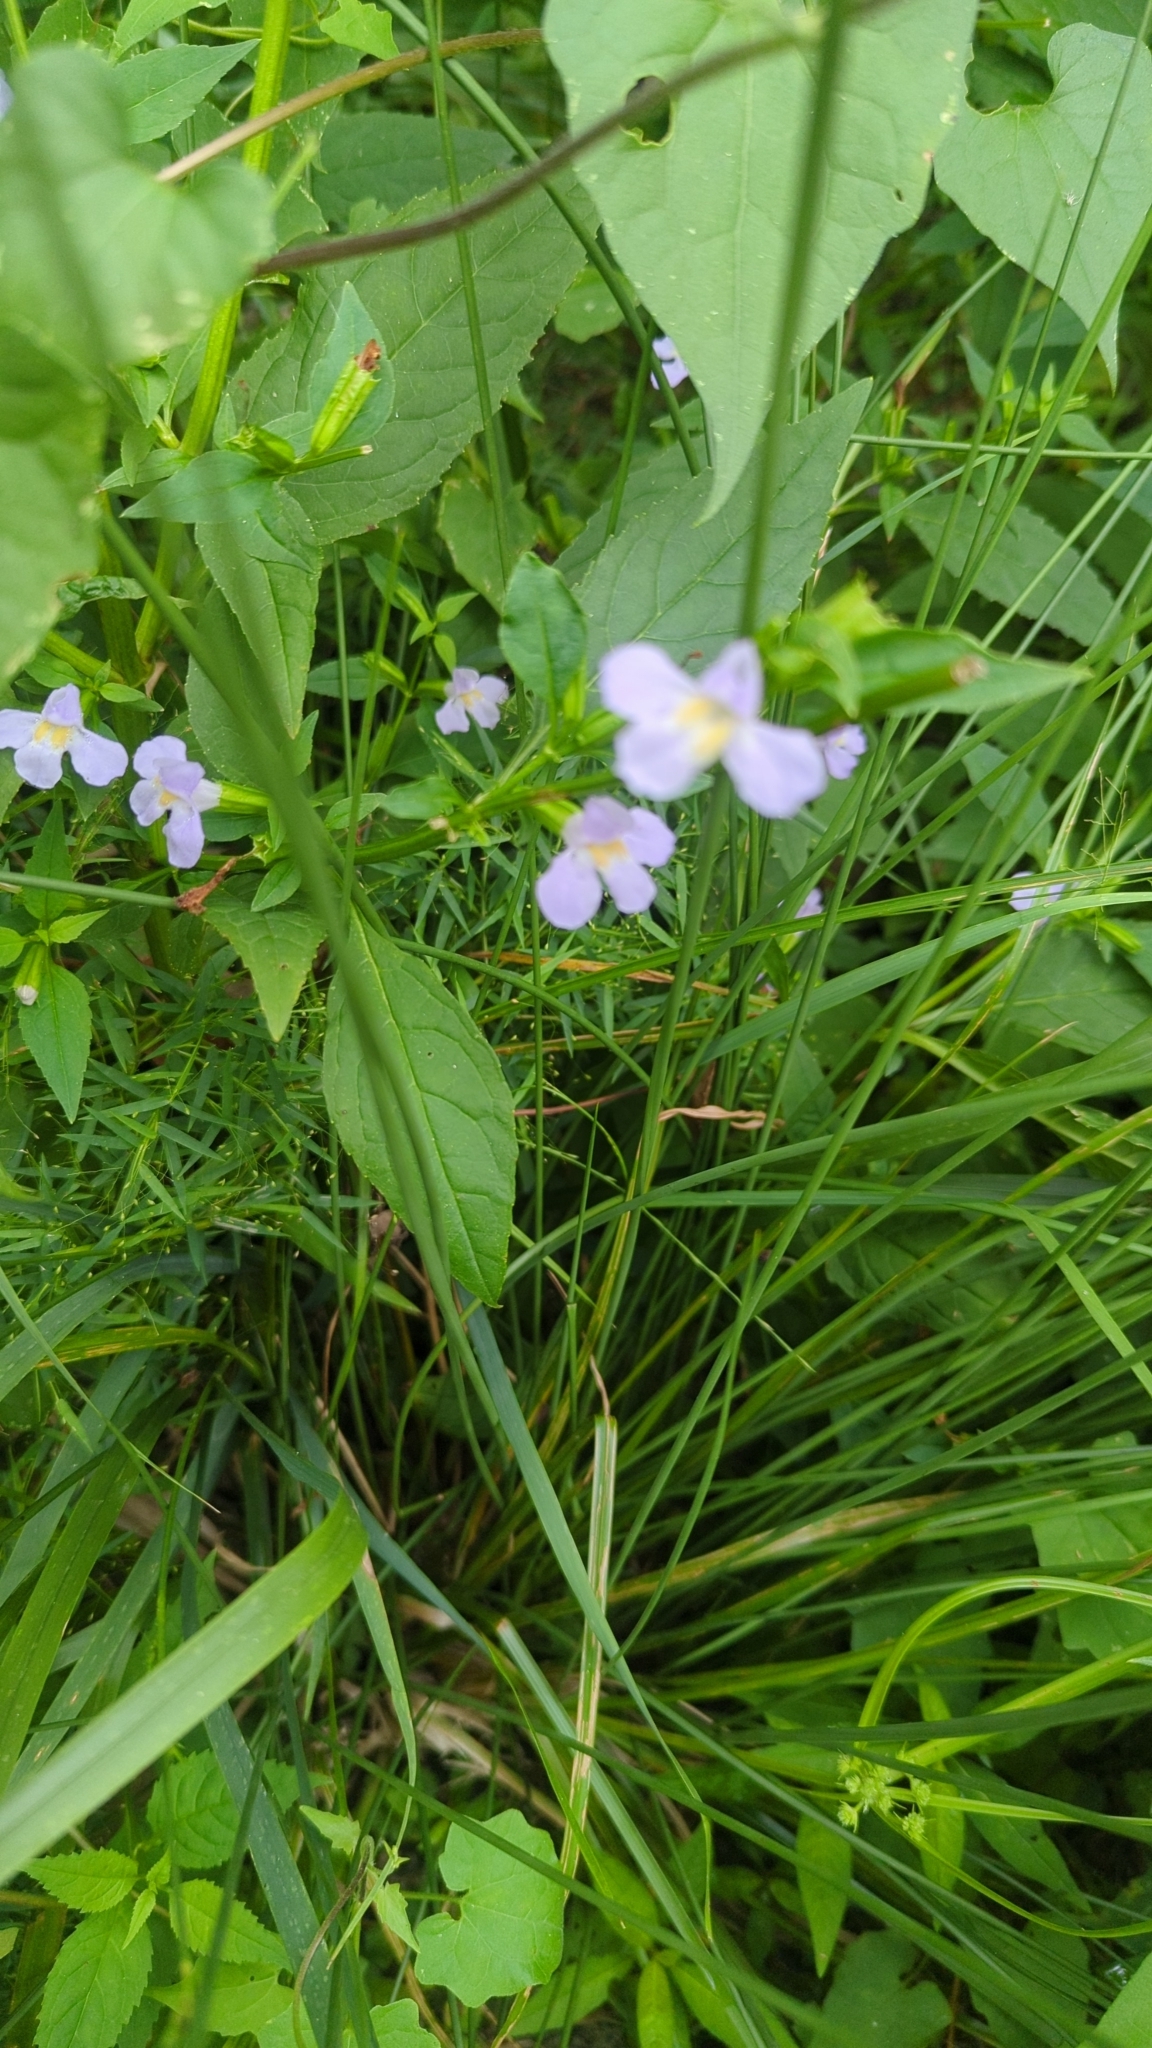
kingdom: Plantae
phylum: Tracheophyta
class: Magnoliopsida
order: Lamiales
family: Phrymaceae
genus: Mimulus
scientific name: Mimulus alatus
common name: Sharp-wing monkey-flower
